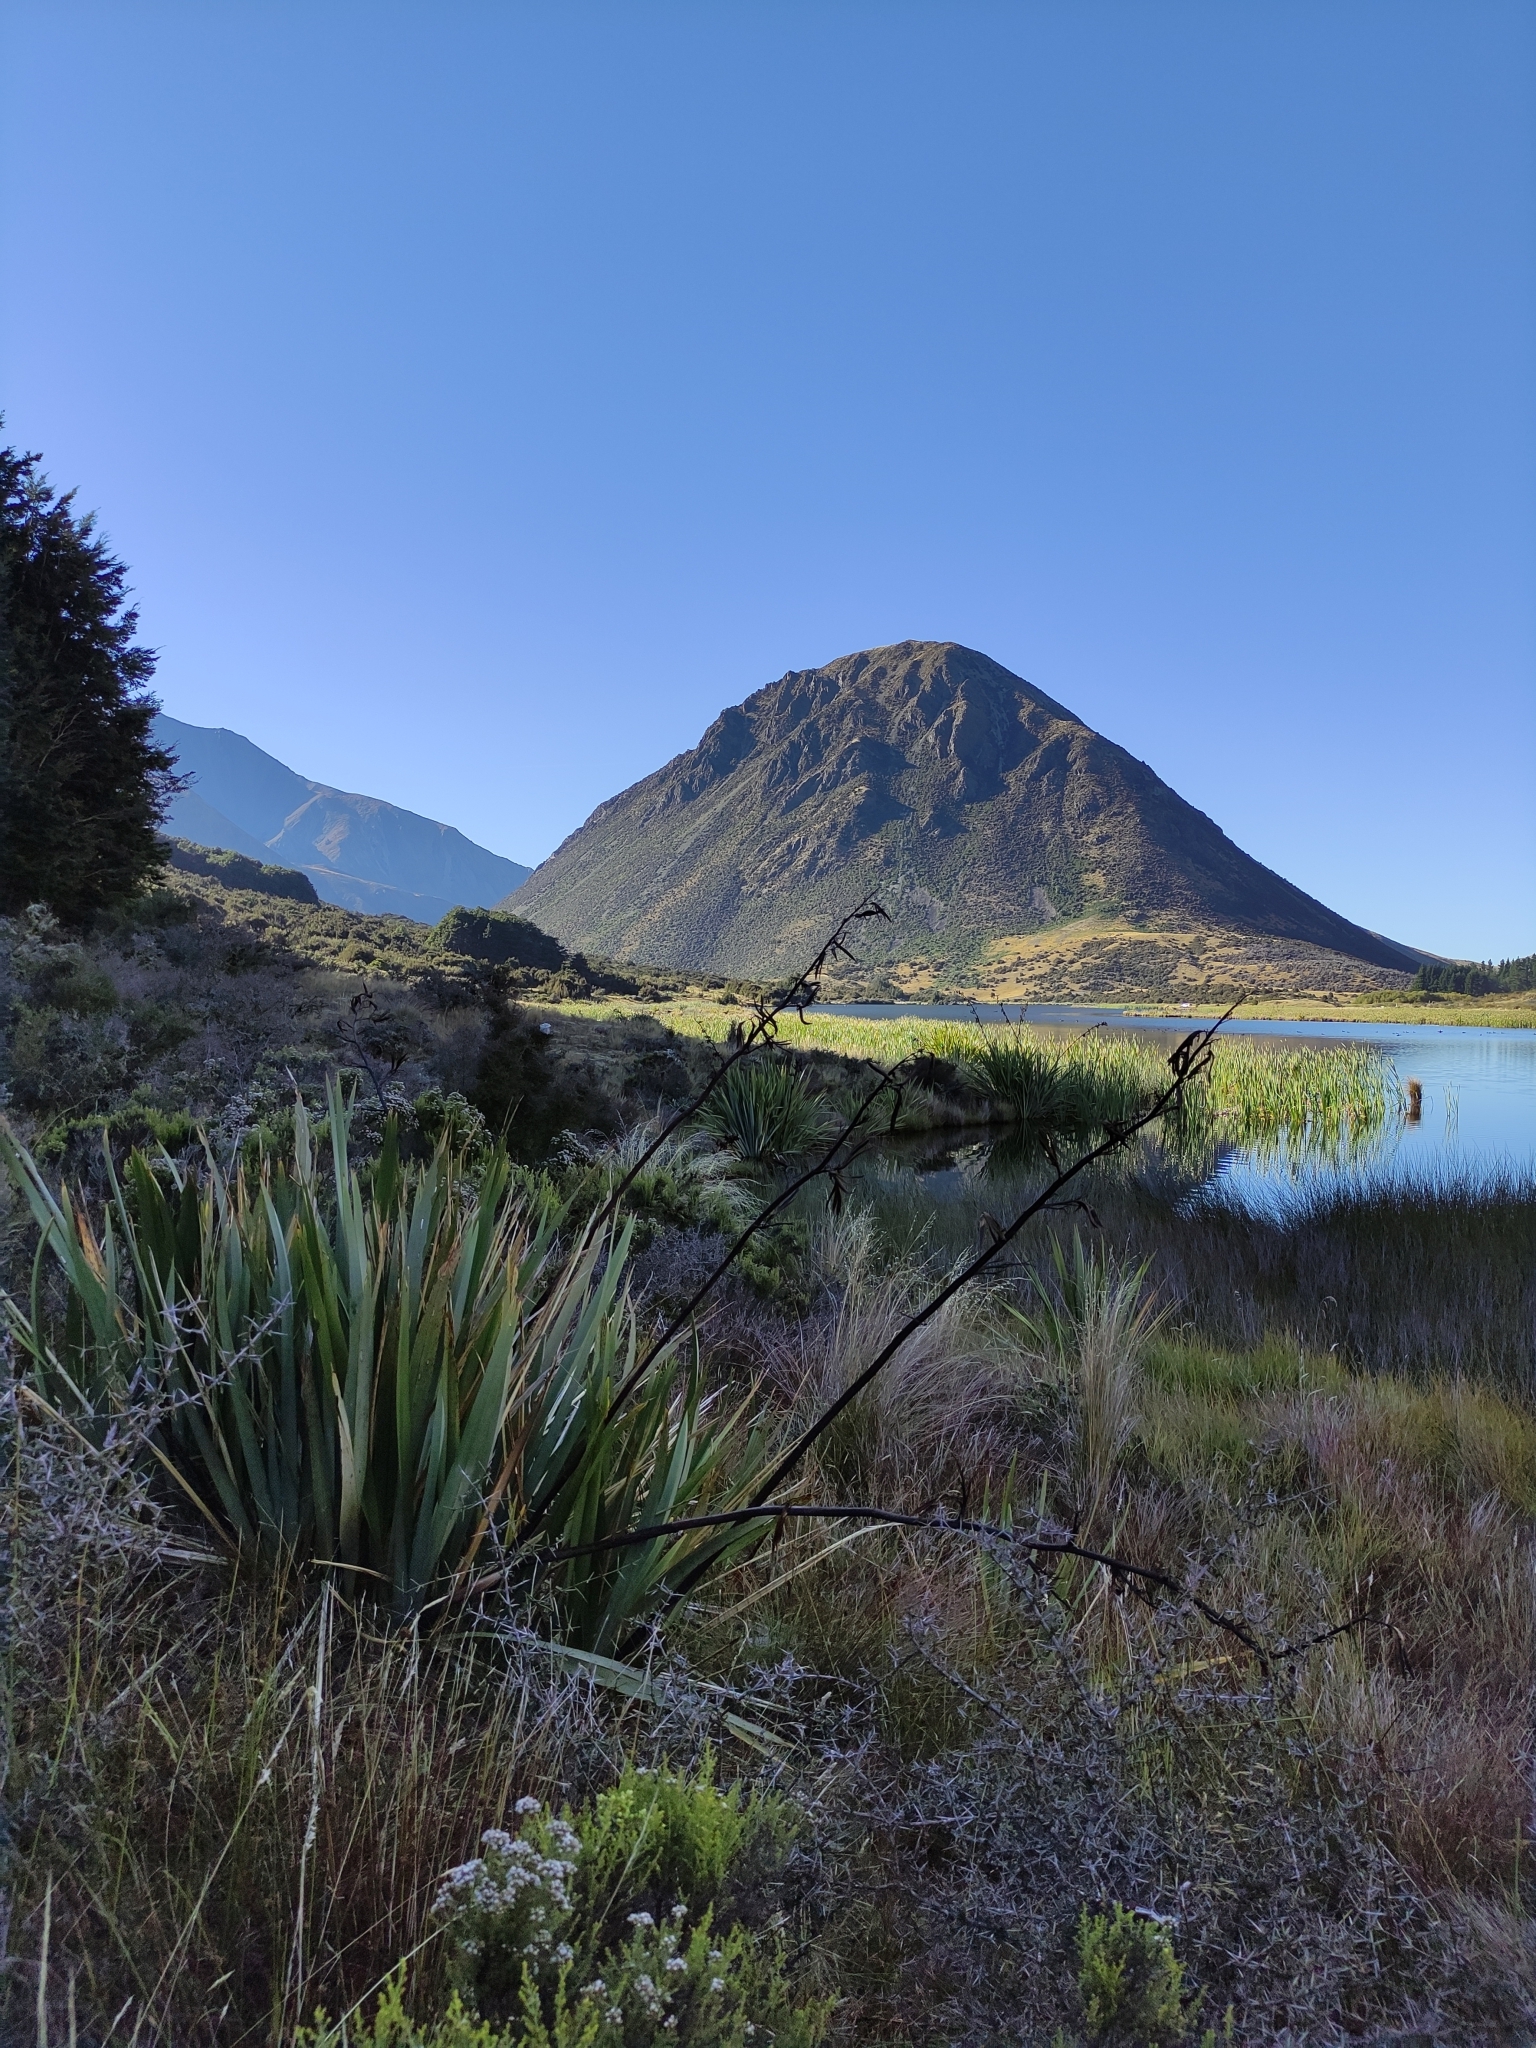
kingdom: Plantae
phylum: Tracheophyta
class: Liliopsida
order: Asparagales
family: Asphodelaceae
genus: Phormium
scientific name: Phormium tenax
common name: New zealand flax
